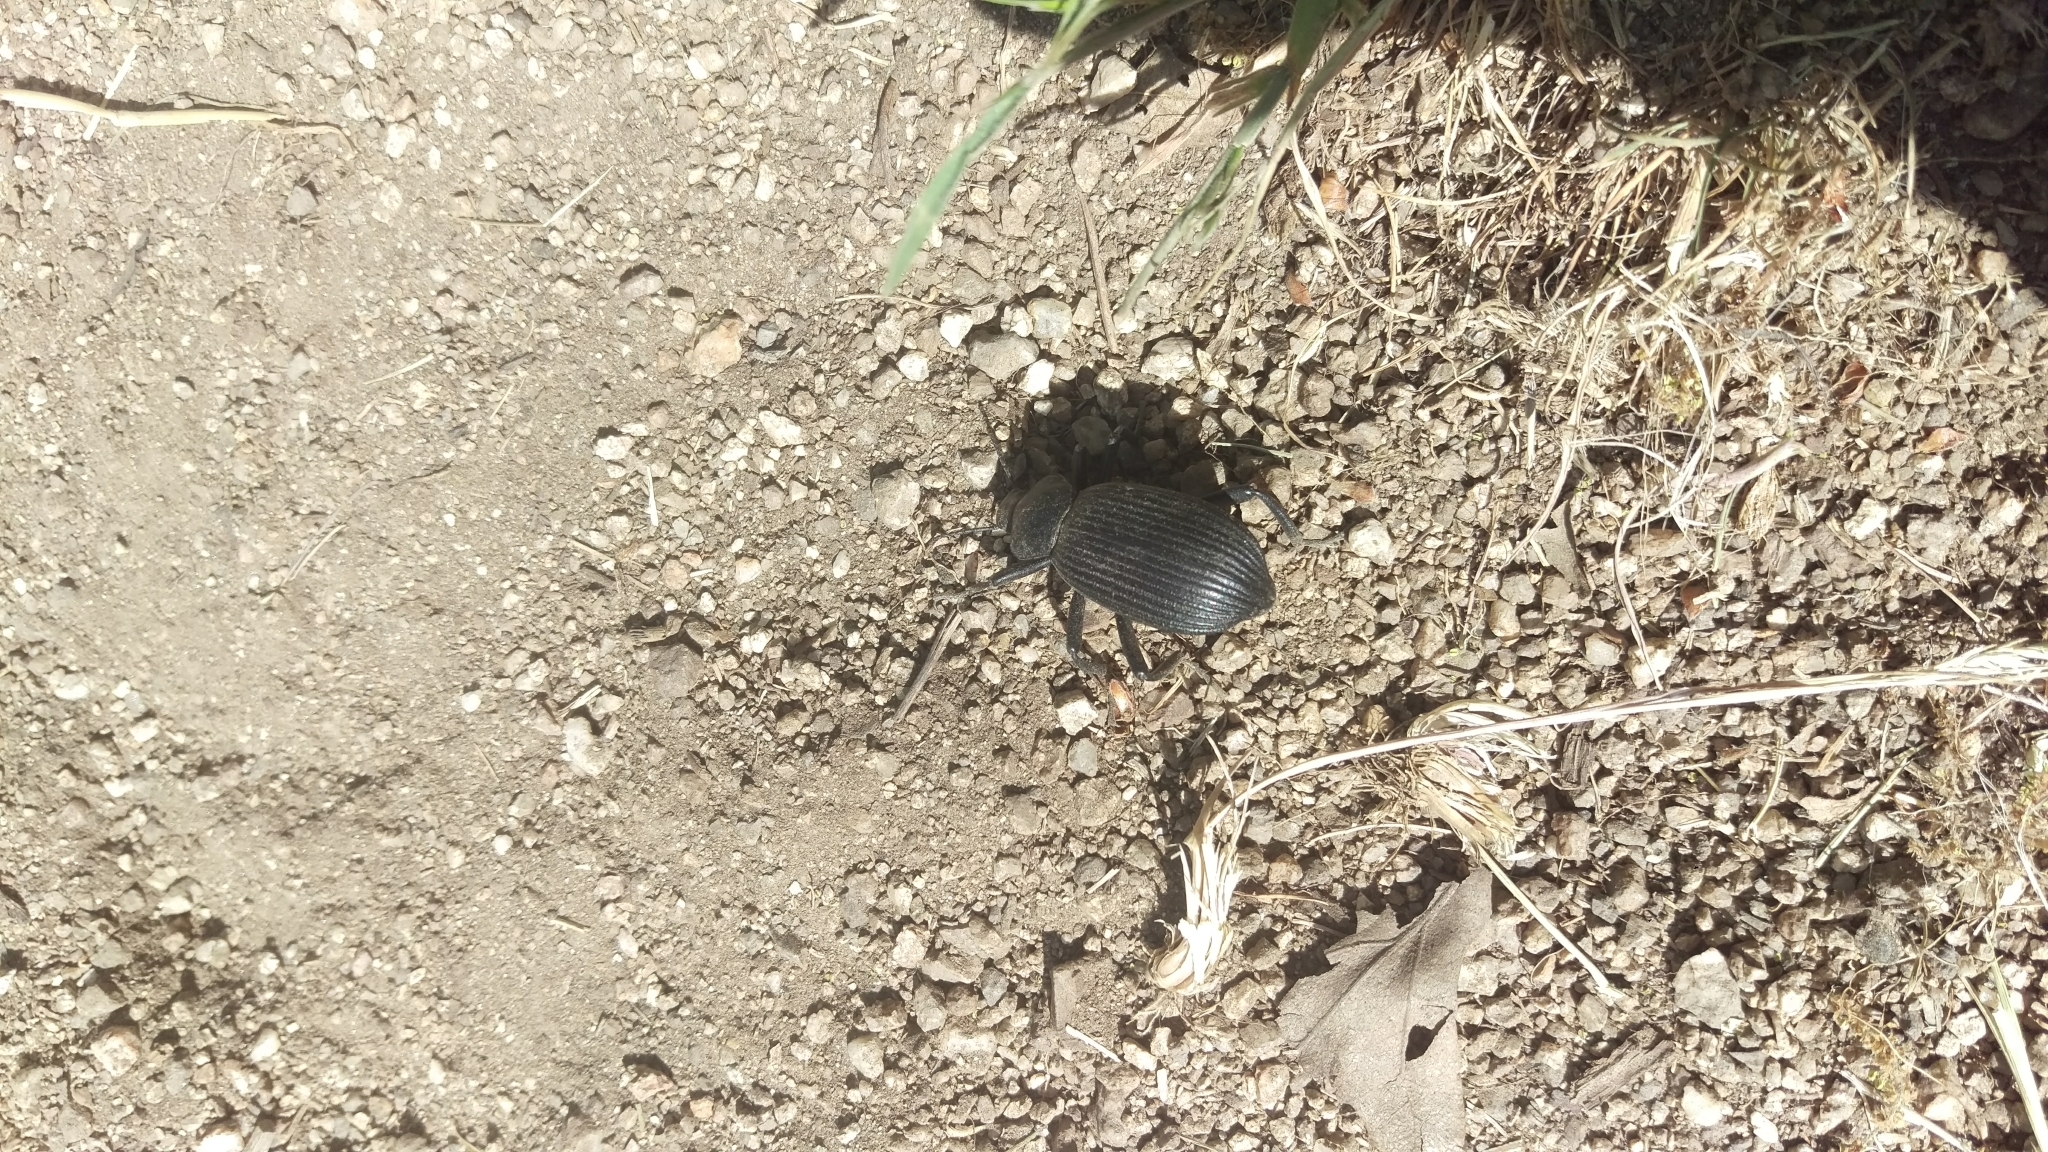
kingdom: Animalia
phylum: Arthropoda
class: Insecta
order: Coleoptera
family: Tenebrionidae
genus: Eleodes
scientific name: Eleodes obscura
